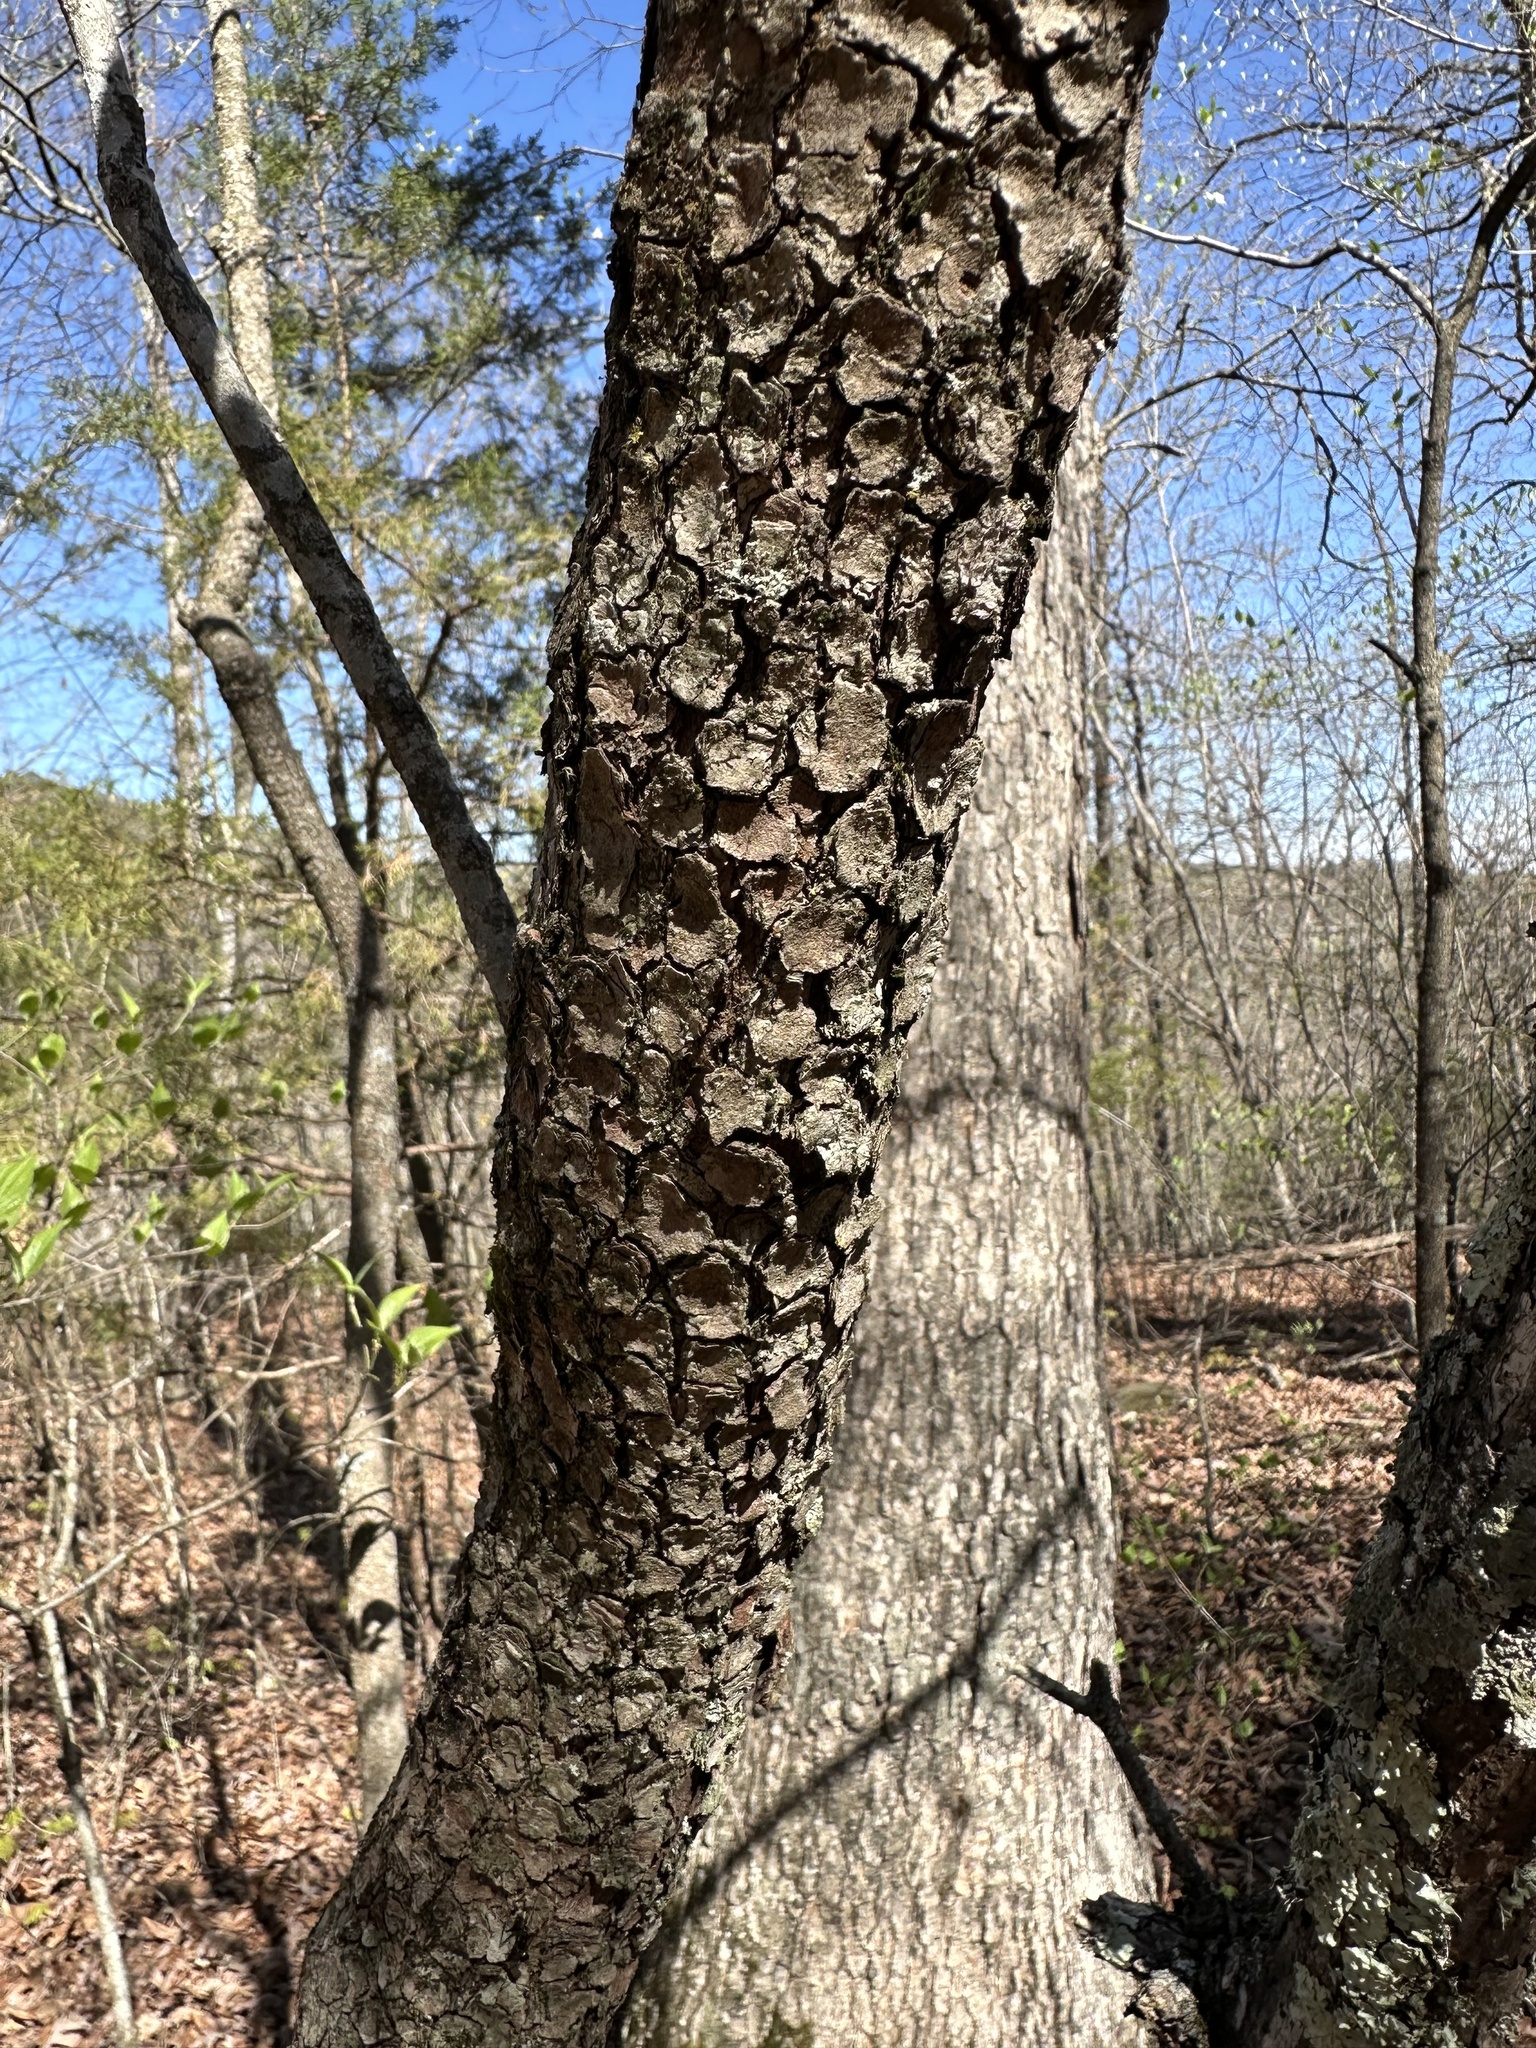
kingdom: Plantae
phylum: Tracheophyta
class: Magnoliopsida
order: Cornales
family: Cornaceae
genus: Cornus
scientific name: Cornus florida
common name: Flowering dogwood
